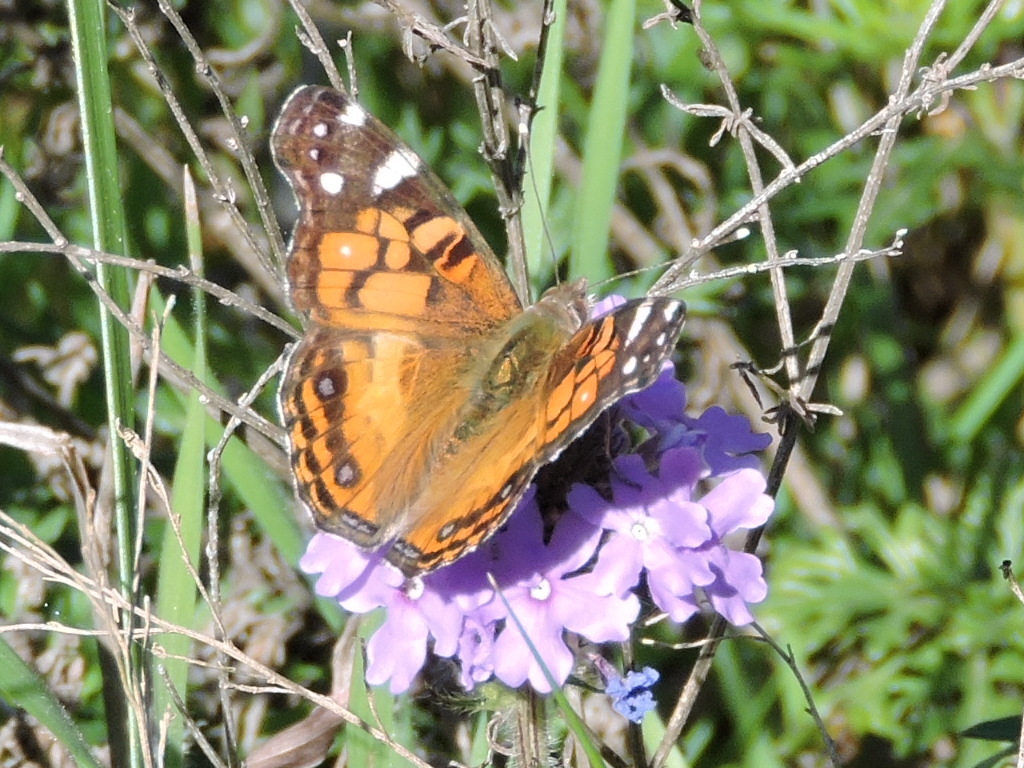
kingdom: Animalia
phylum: Arthropoda
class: Insecta
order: Lepidoptera
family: Nymphalidae
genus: Vanessa
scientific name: Vanessa virginiensis
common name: American lady
